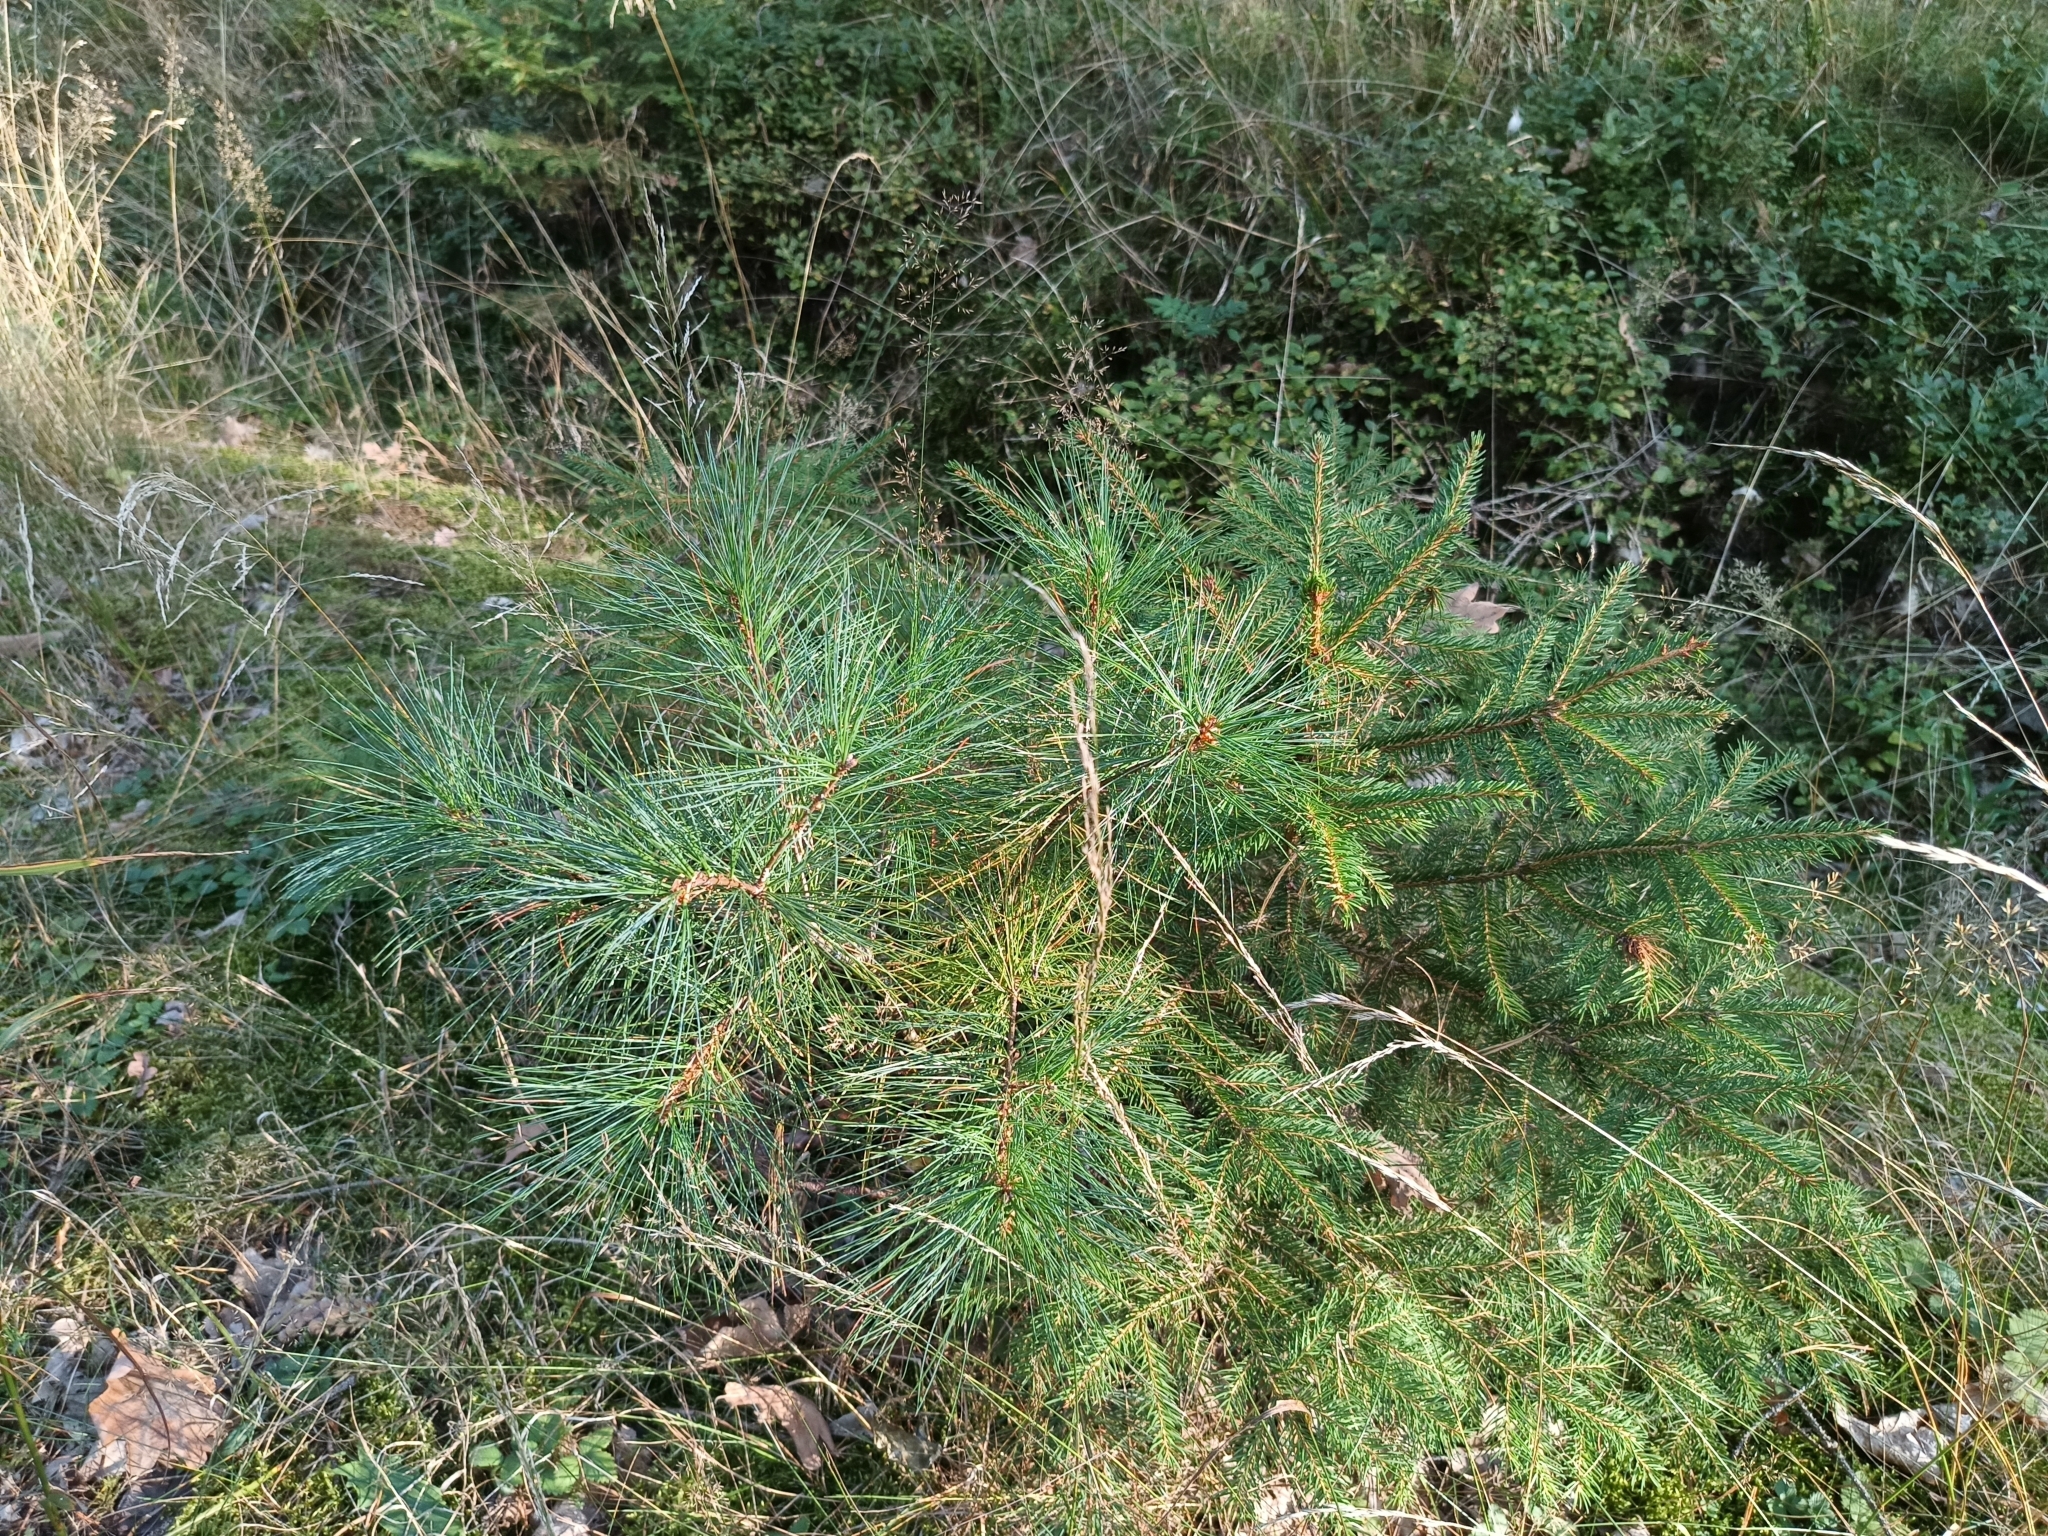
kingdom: Plantae
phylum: Tracheophyta
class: Pinopsida
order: Pinales
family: Pinaceae
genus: Pinus
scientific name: Pinus strobus
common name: Weymouth pine
